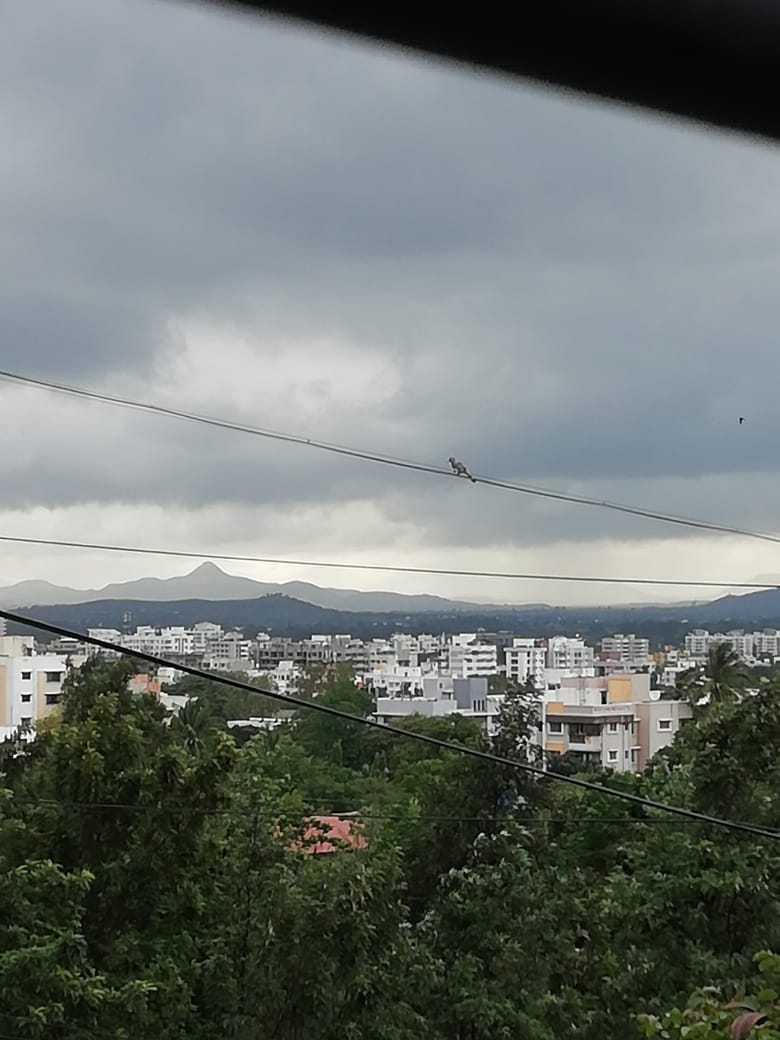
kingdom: Animalia
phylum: Chordata
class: Aves
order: Bucerotiformes
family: Bucerotidae
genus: Ocyceros
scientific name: Ocyceros birostris
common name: Indian grey hornbill
